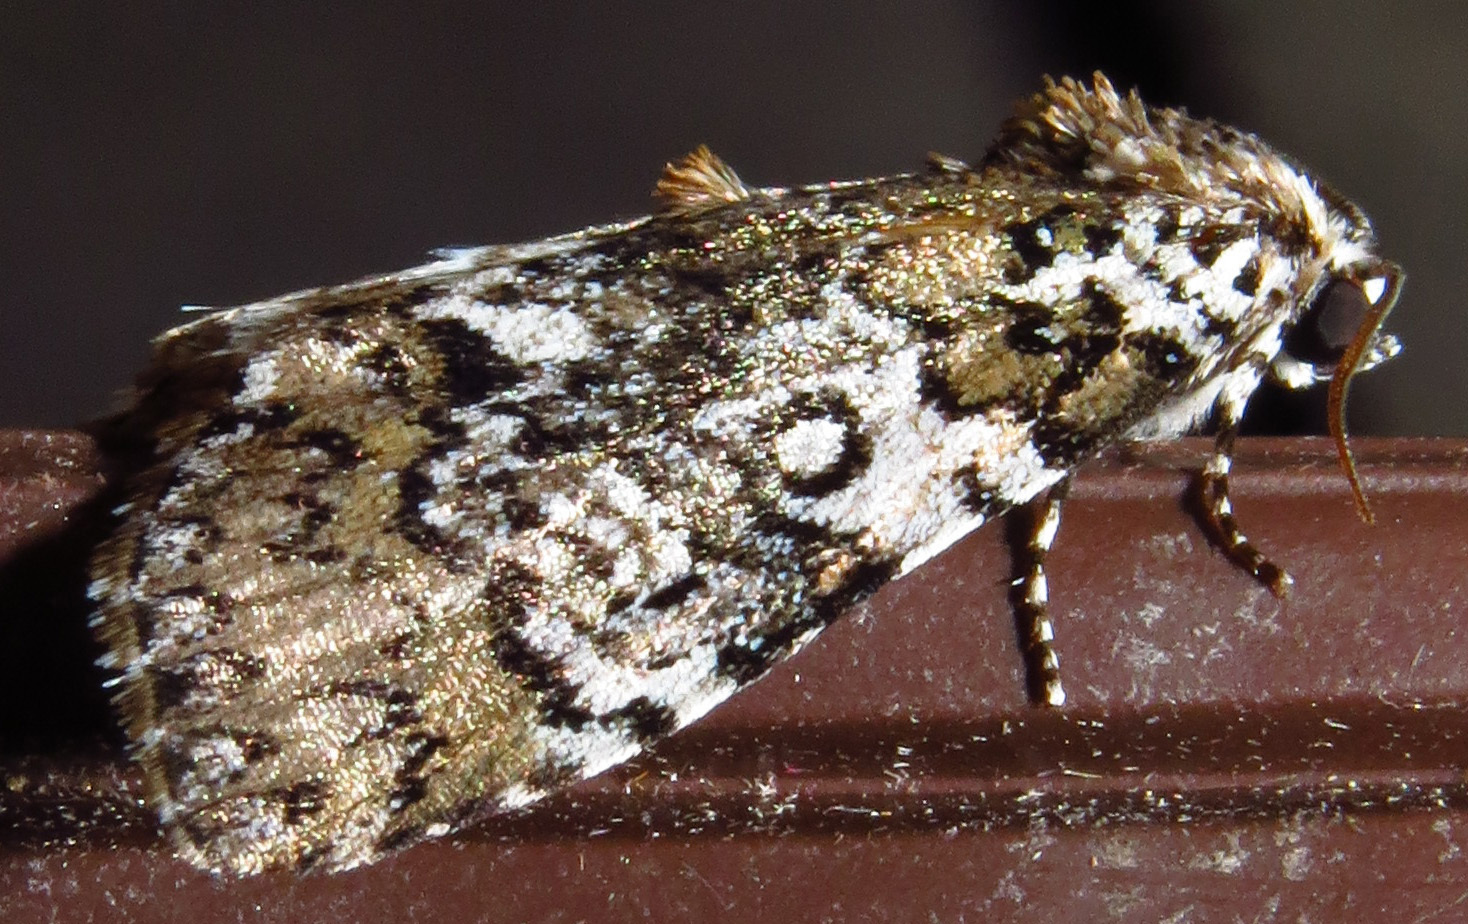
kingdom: Animalia
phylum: Arthropoda
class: Insecta
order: Lepidoptera
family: Noctuidae
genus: Cerma
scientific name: Cerma cora
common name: Bird dropping moth
